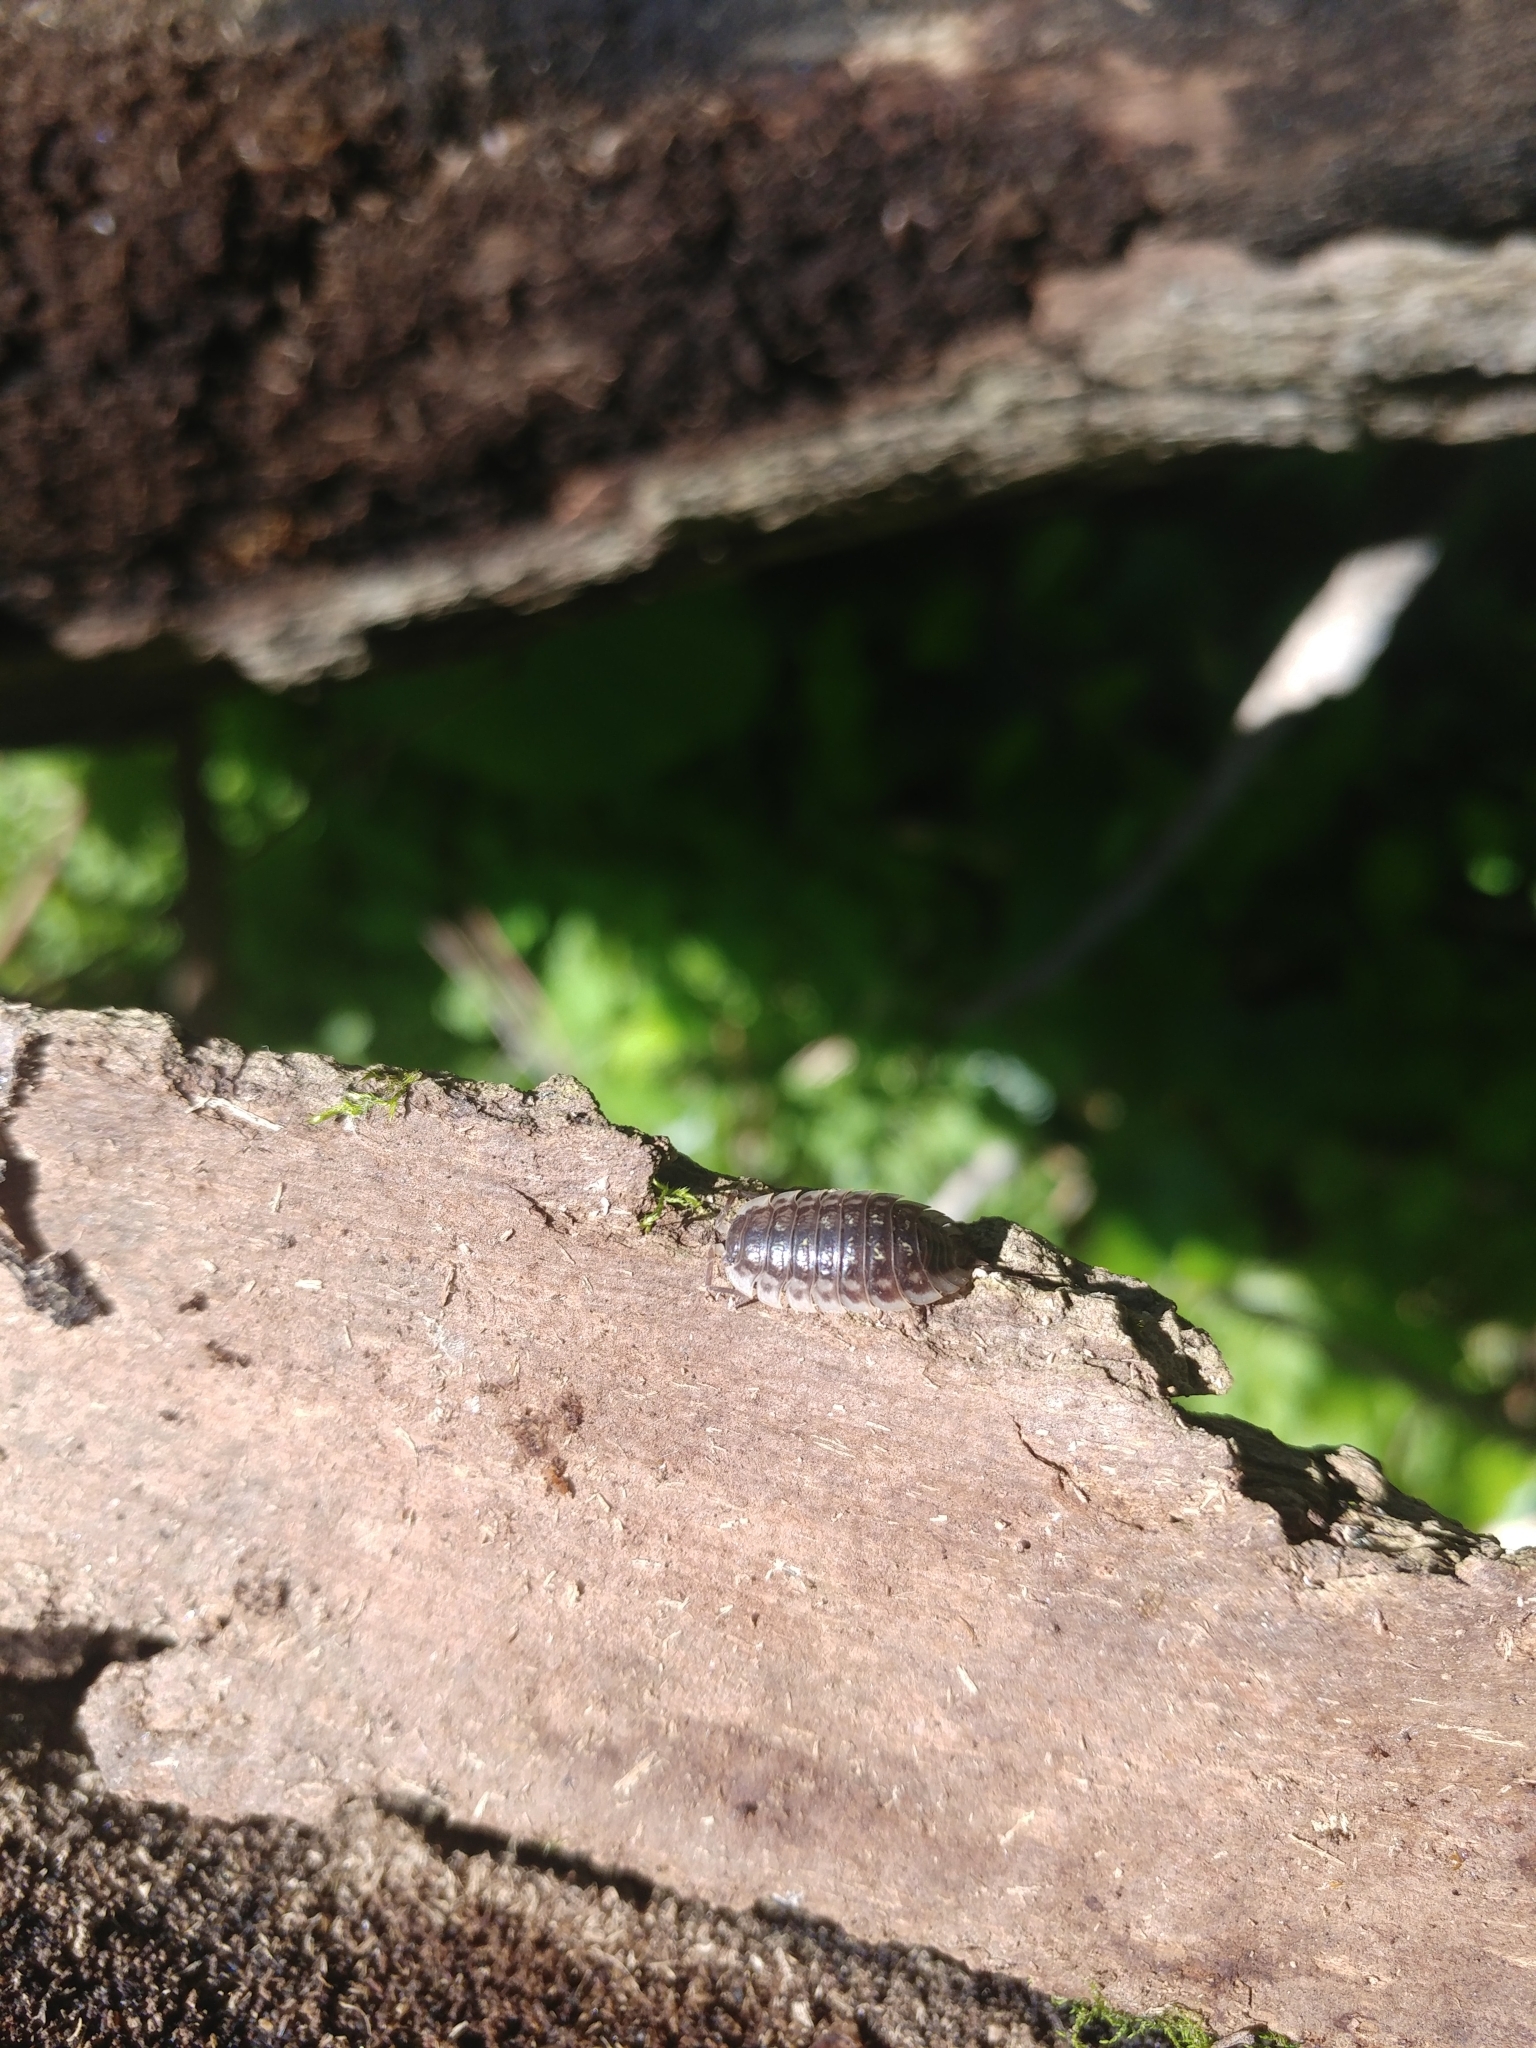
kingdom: Animalia
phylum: Arthropoda
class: Malacostraca
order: Isopoda
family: Oniscidae
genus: Oniscus
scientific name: Oniscus asellus
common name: Common shiny woodlouse
